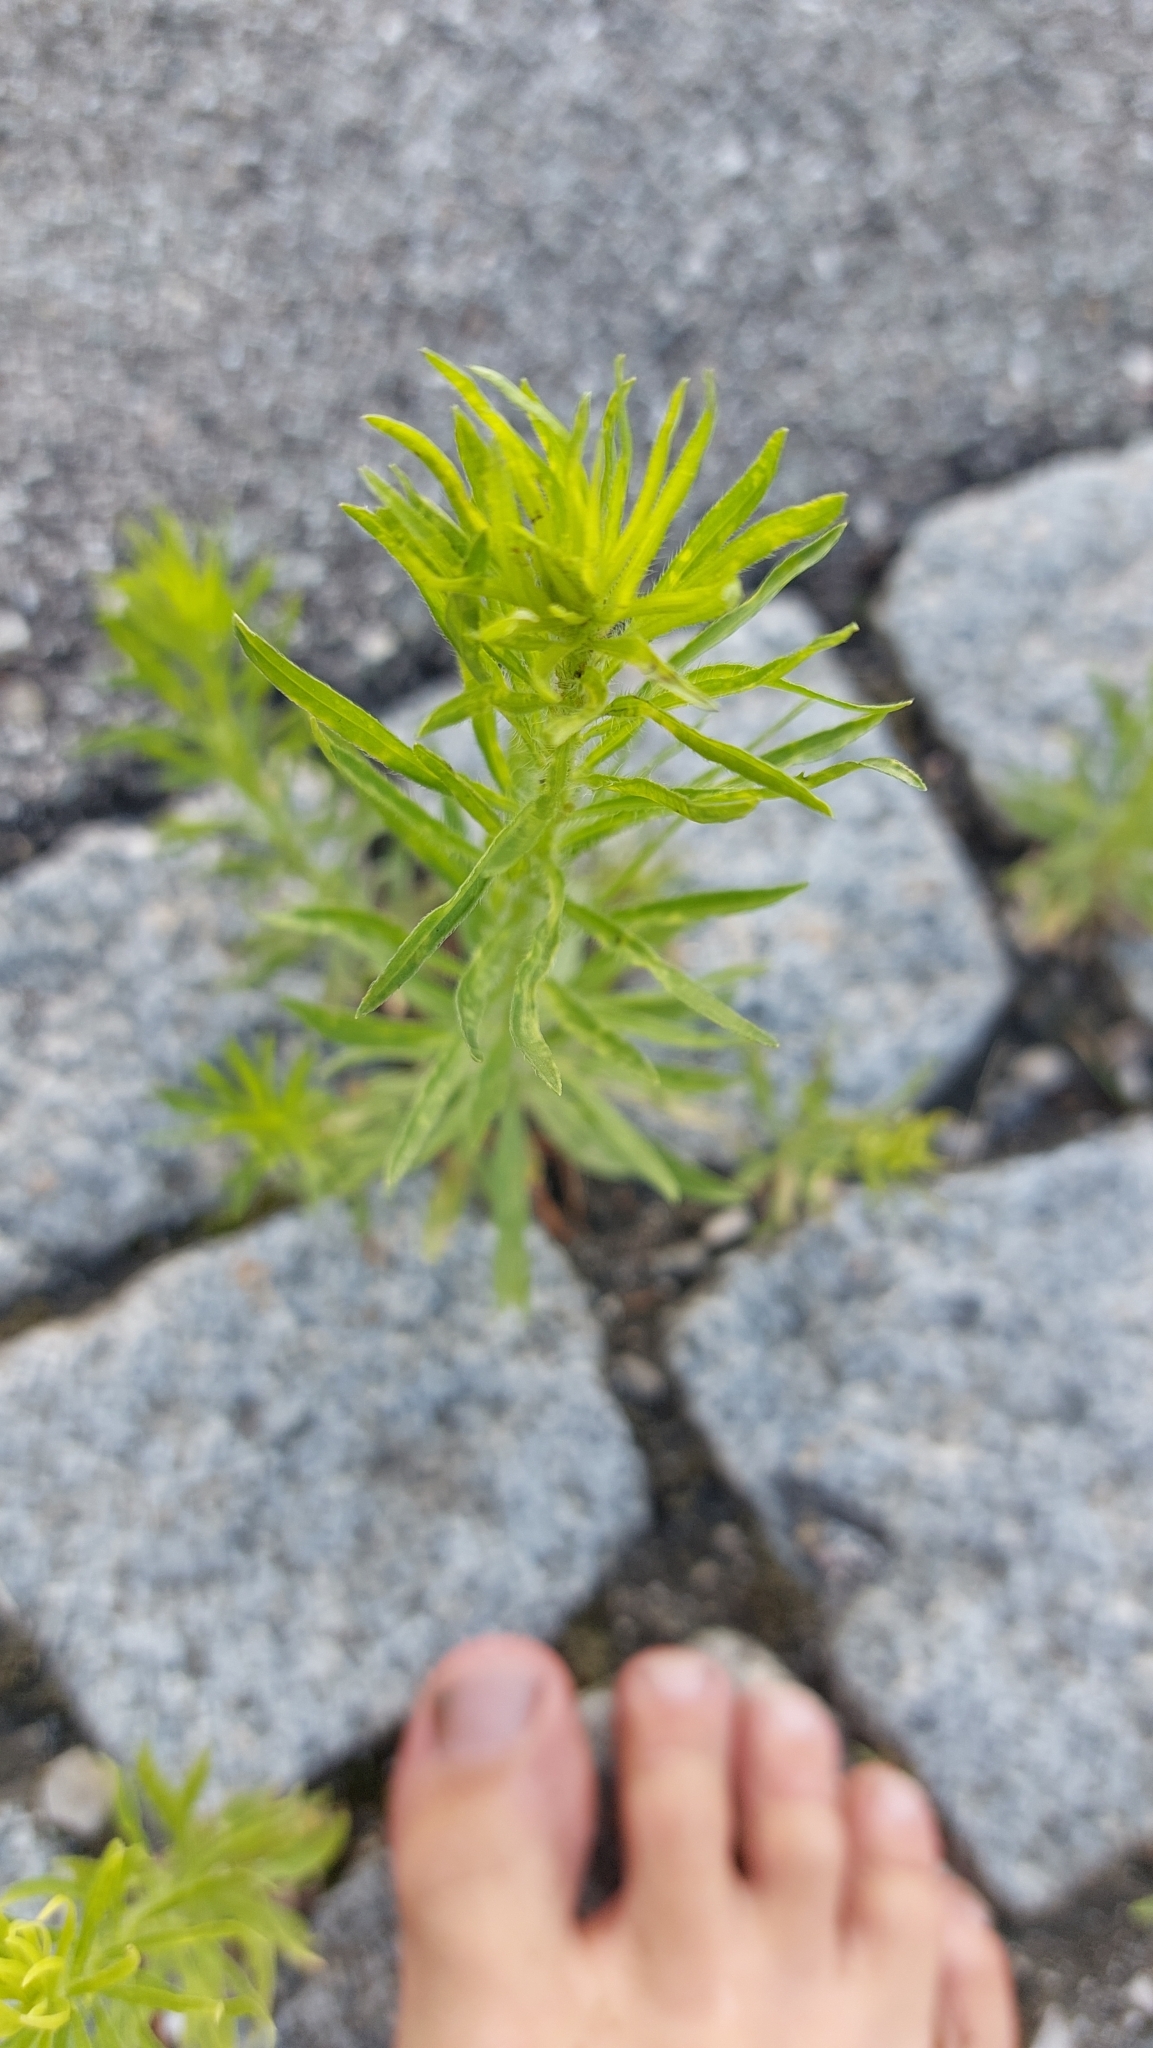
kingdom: Plantae
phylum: Tracheophyta
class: Magnoliopsida
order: Asterales
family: Asteraceae
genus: Erigeron
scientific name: Erigeron canadensis
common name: Canadian fleabane
